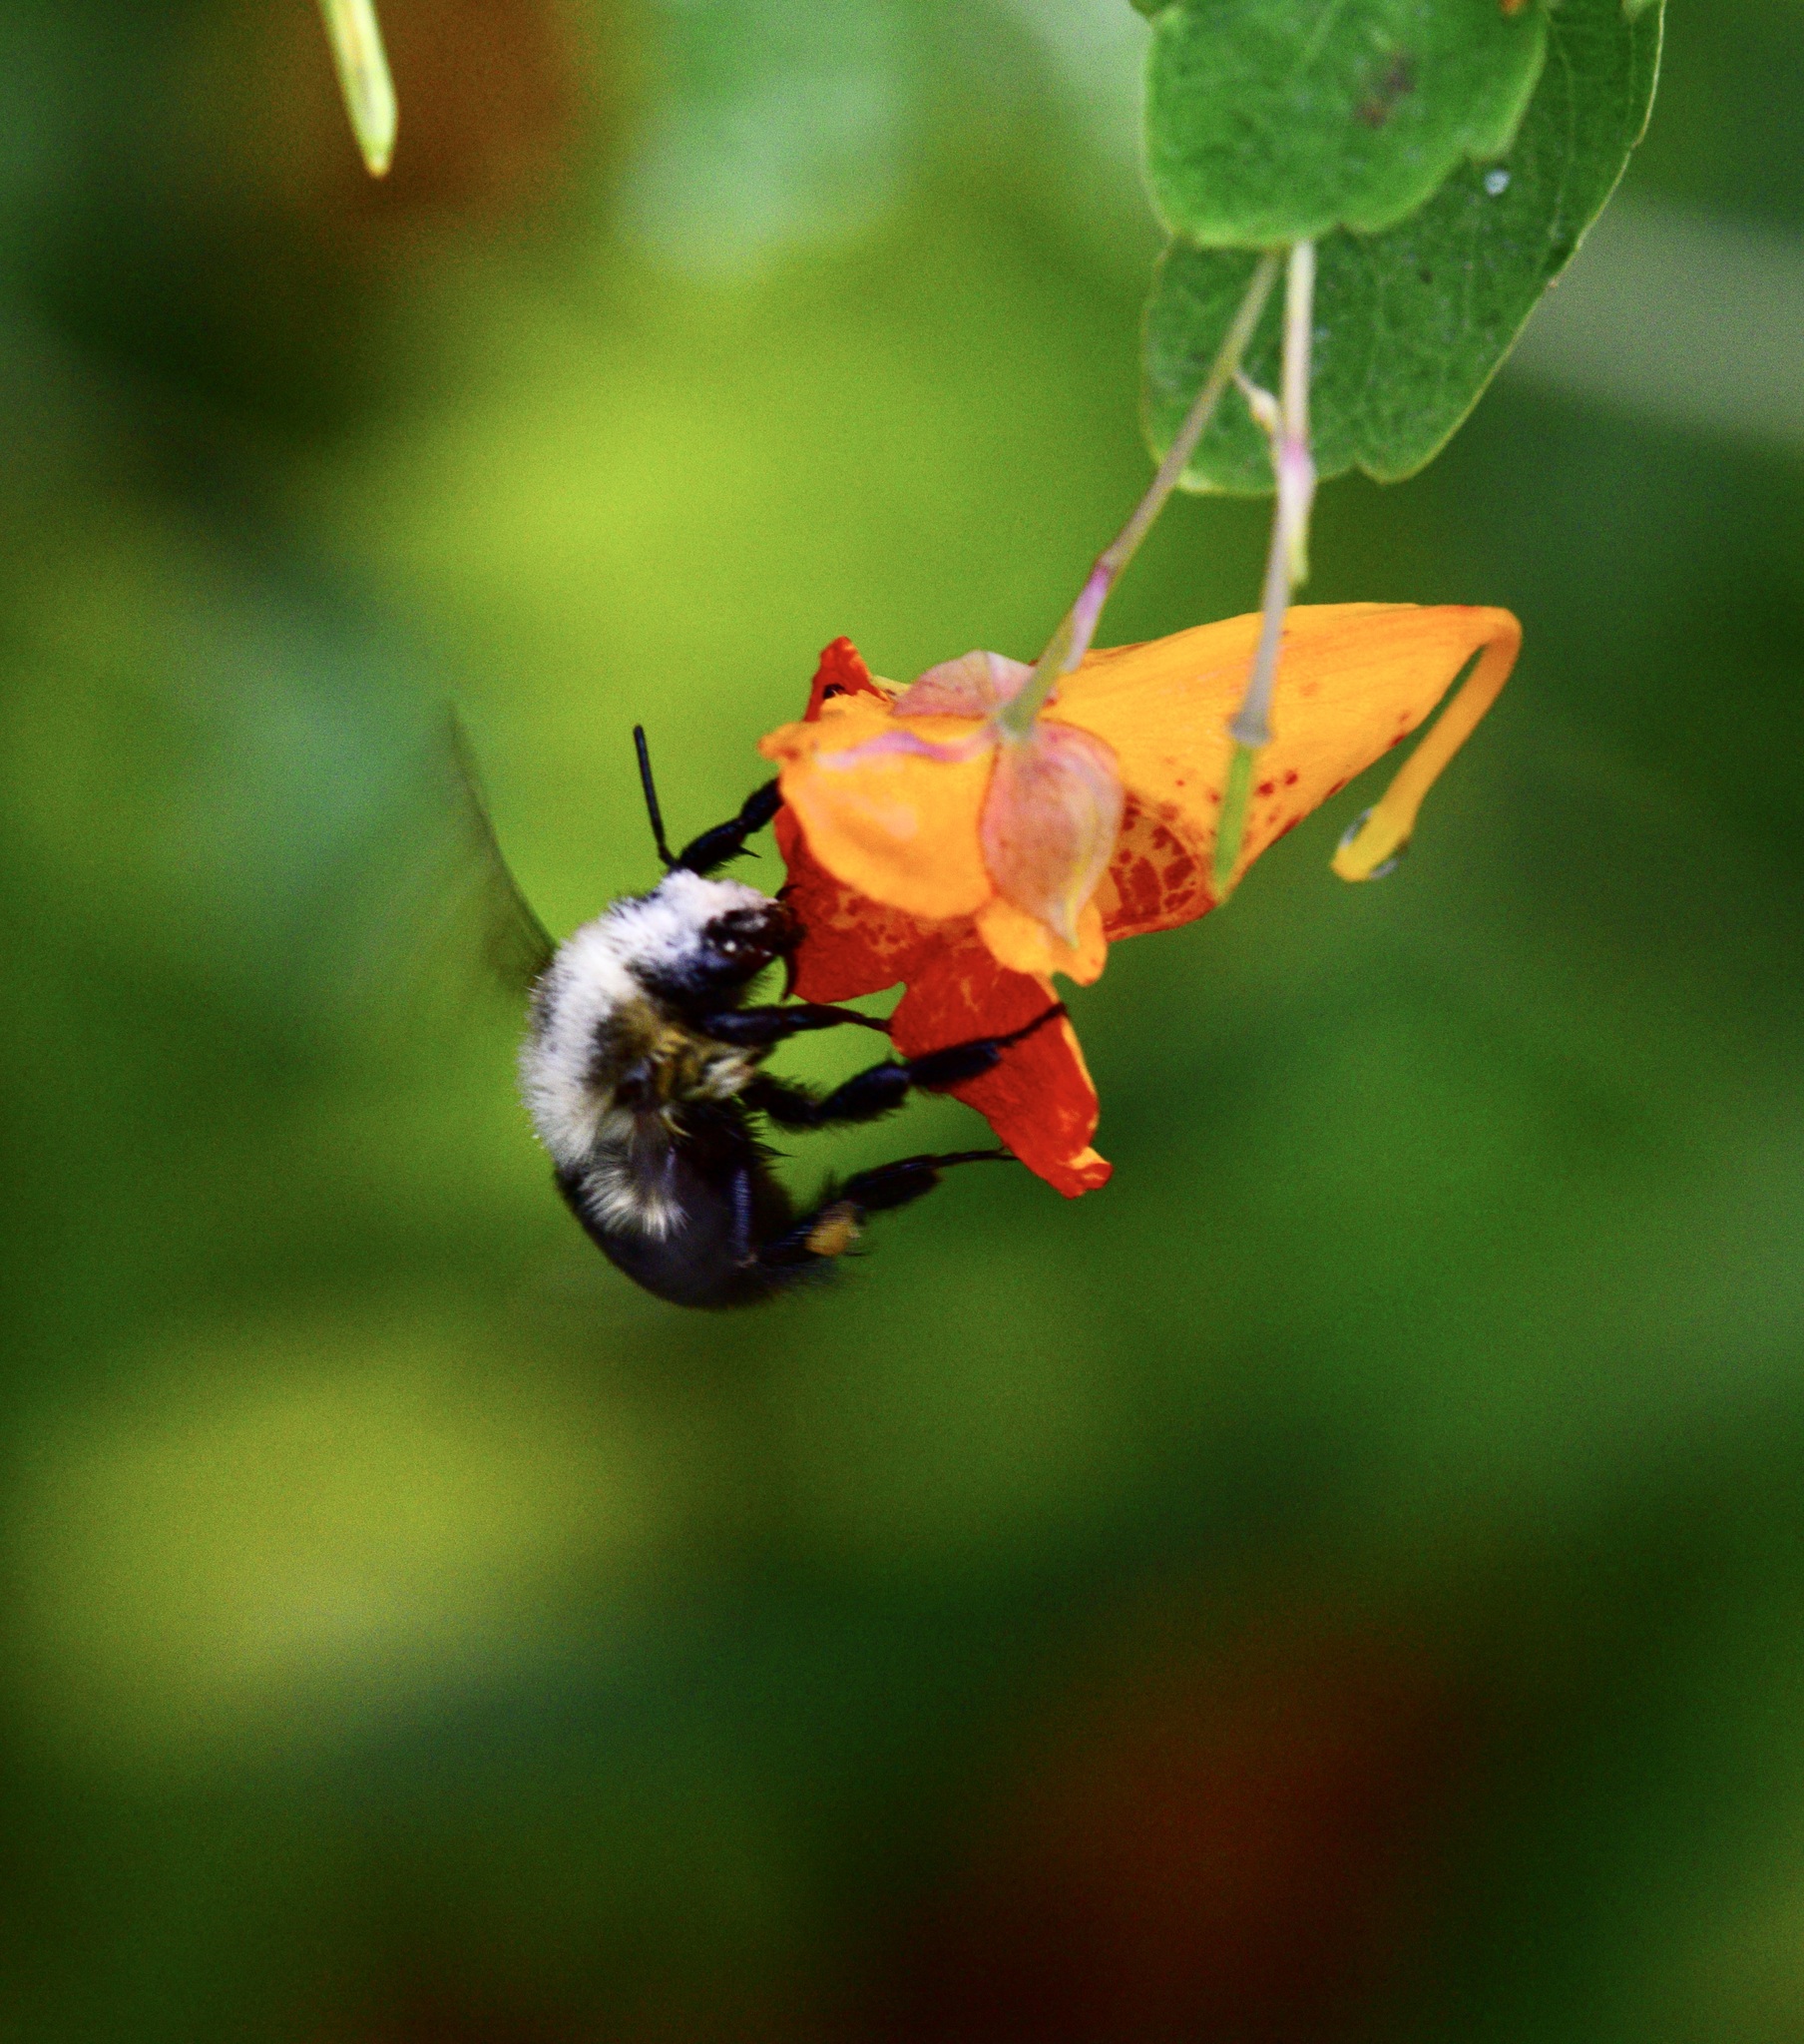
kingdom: Animalia
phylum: Arthropoda
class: Insecta
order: Hymenoptera
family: Apidae
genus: Bombus
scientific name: Bombus impatiens
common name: Common eastern bumble bee
